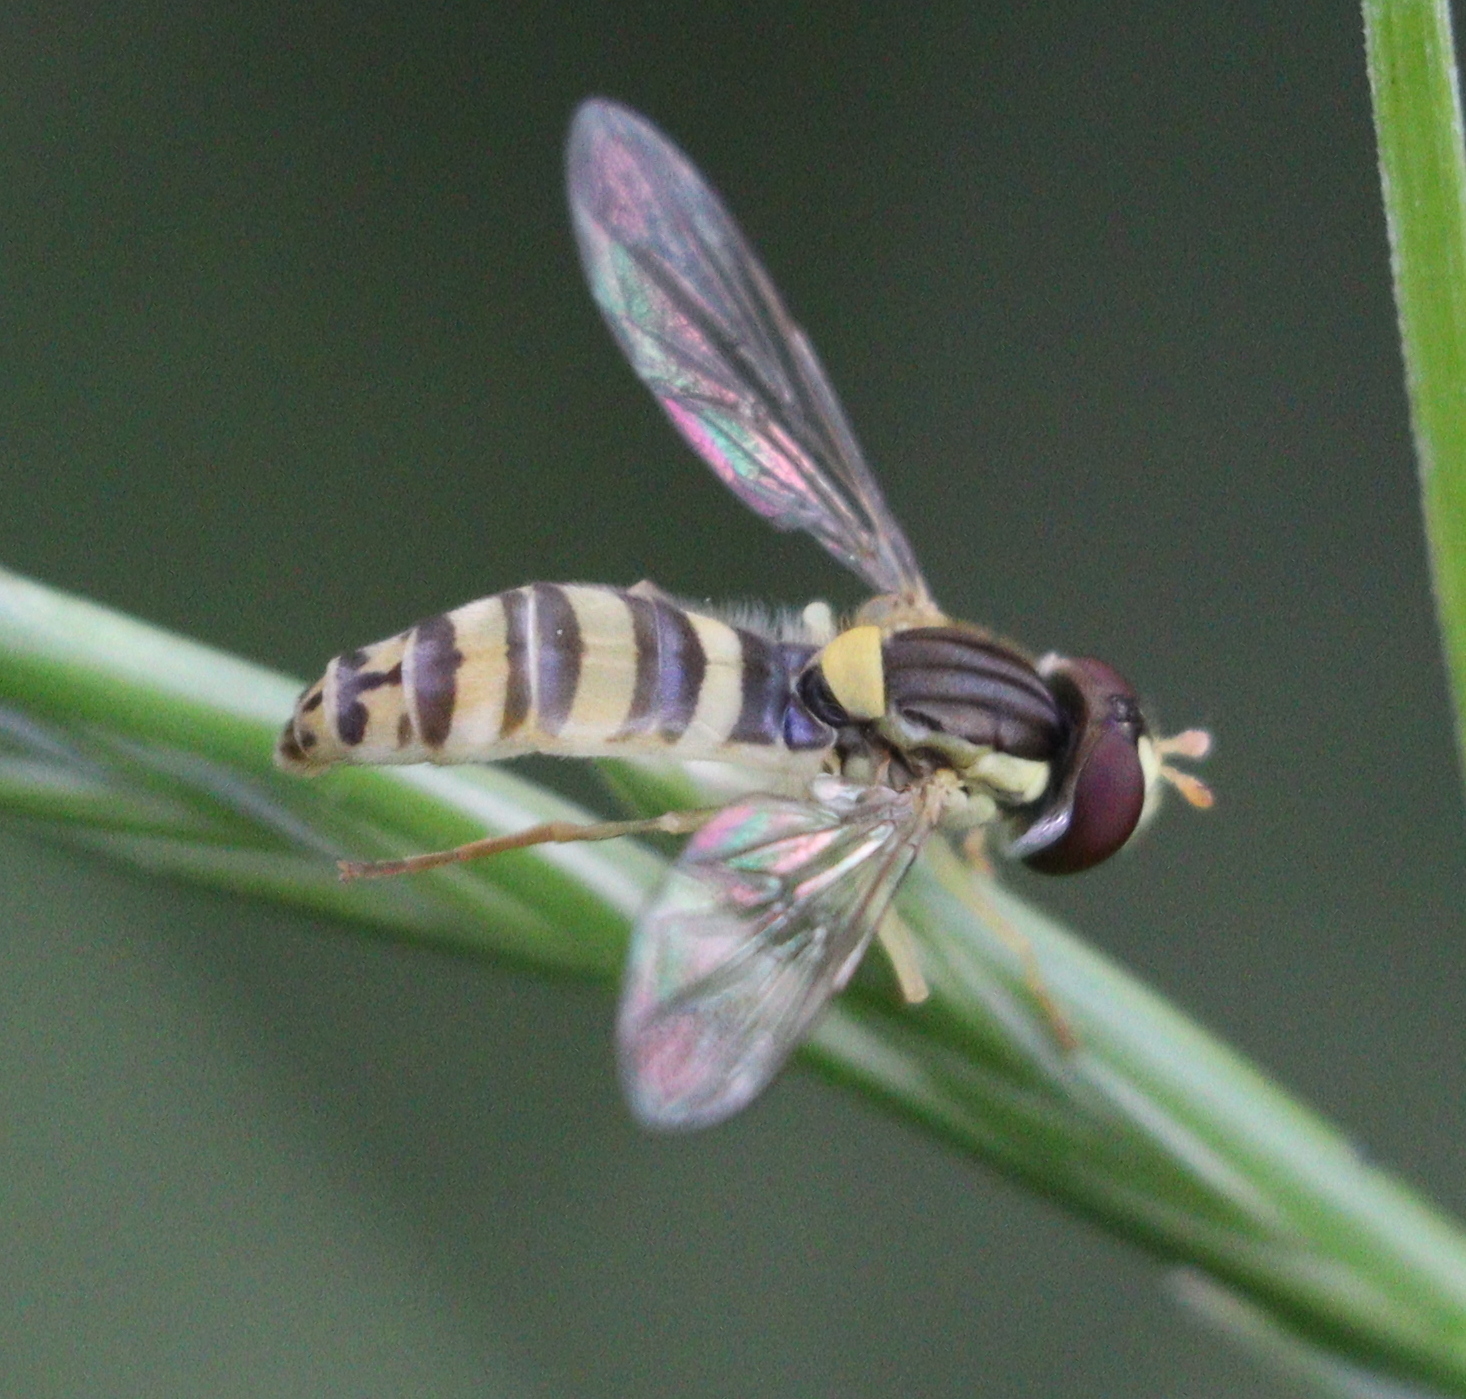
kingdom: Animalia
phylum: Arthropoda
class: Insecta
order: Diptera
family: Syrphidae
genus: Sphaerophoria
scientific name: Sphaerophoria scripta
